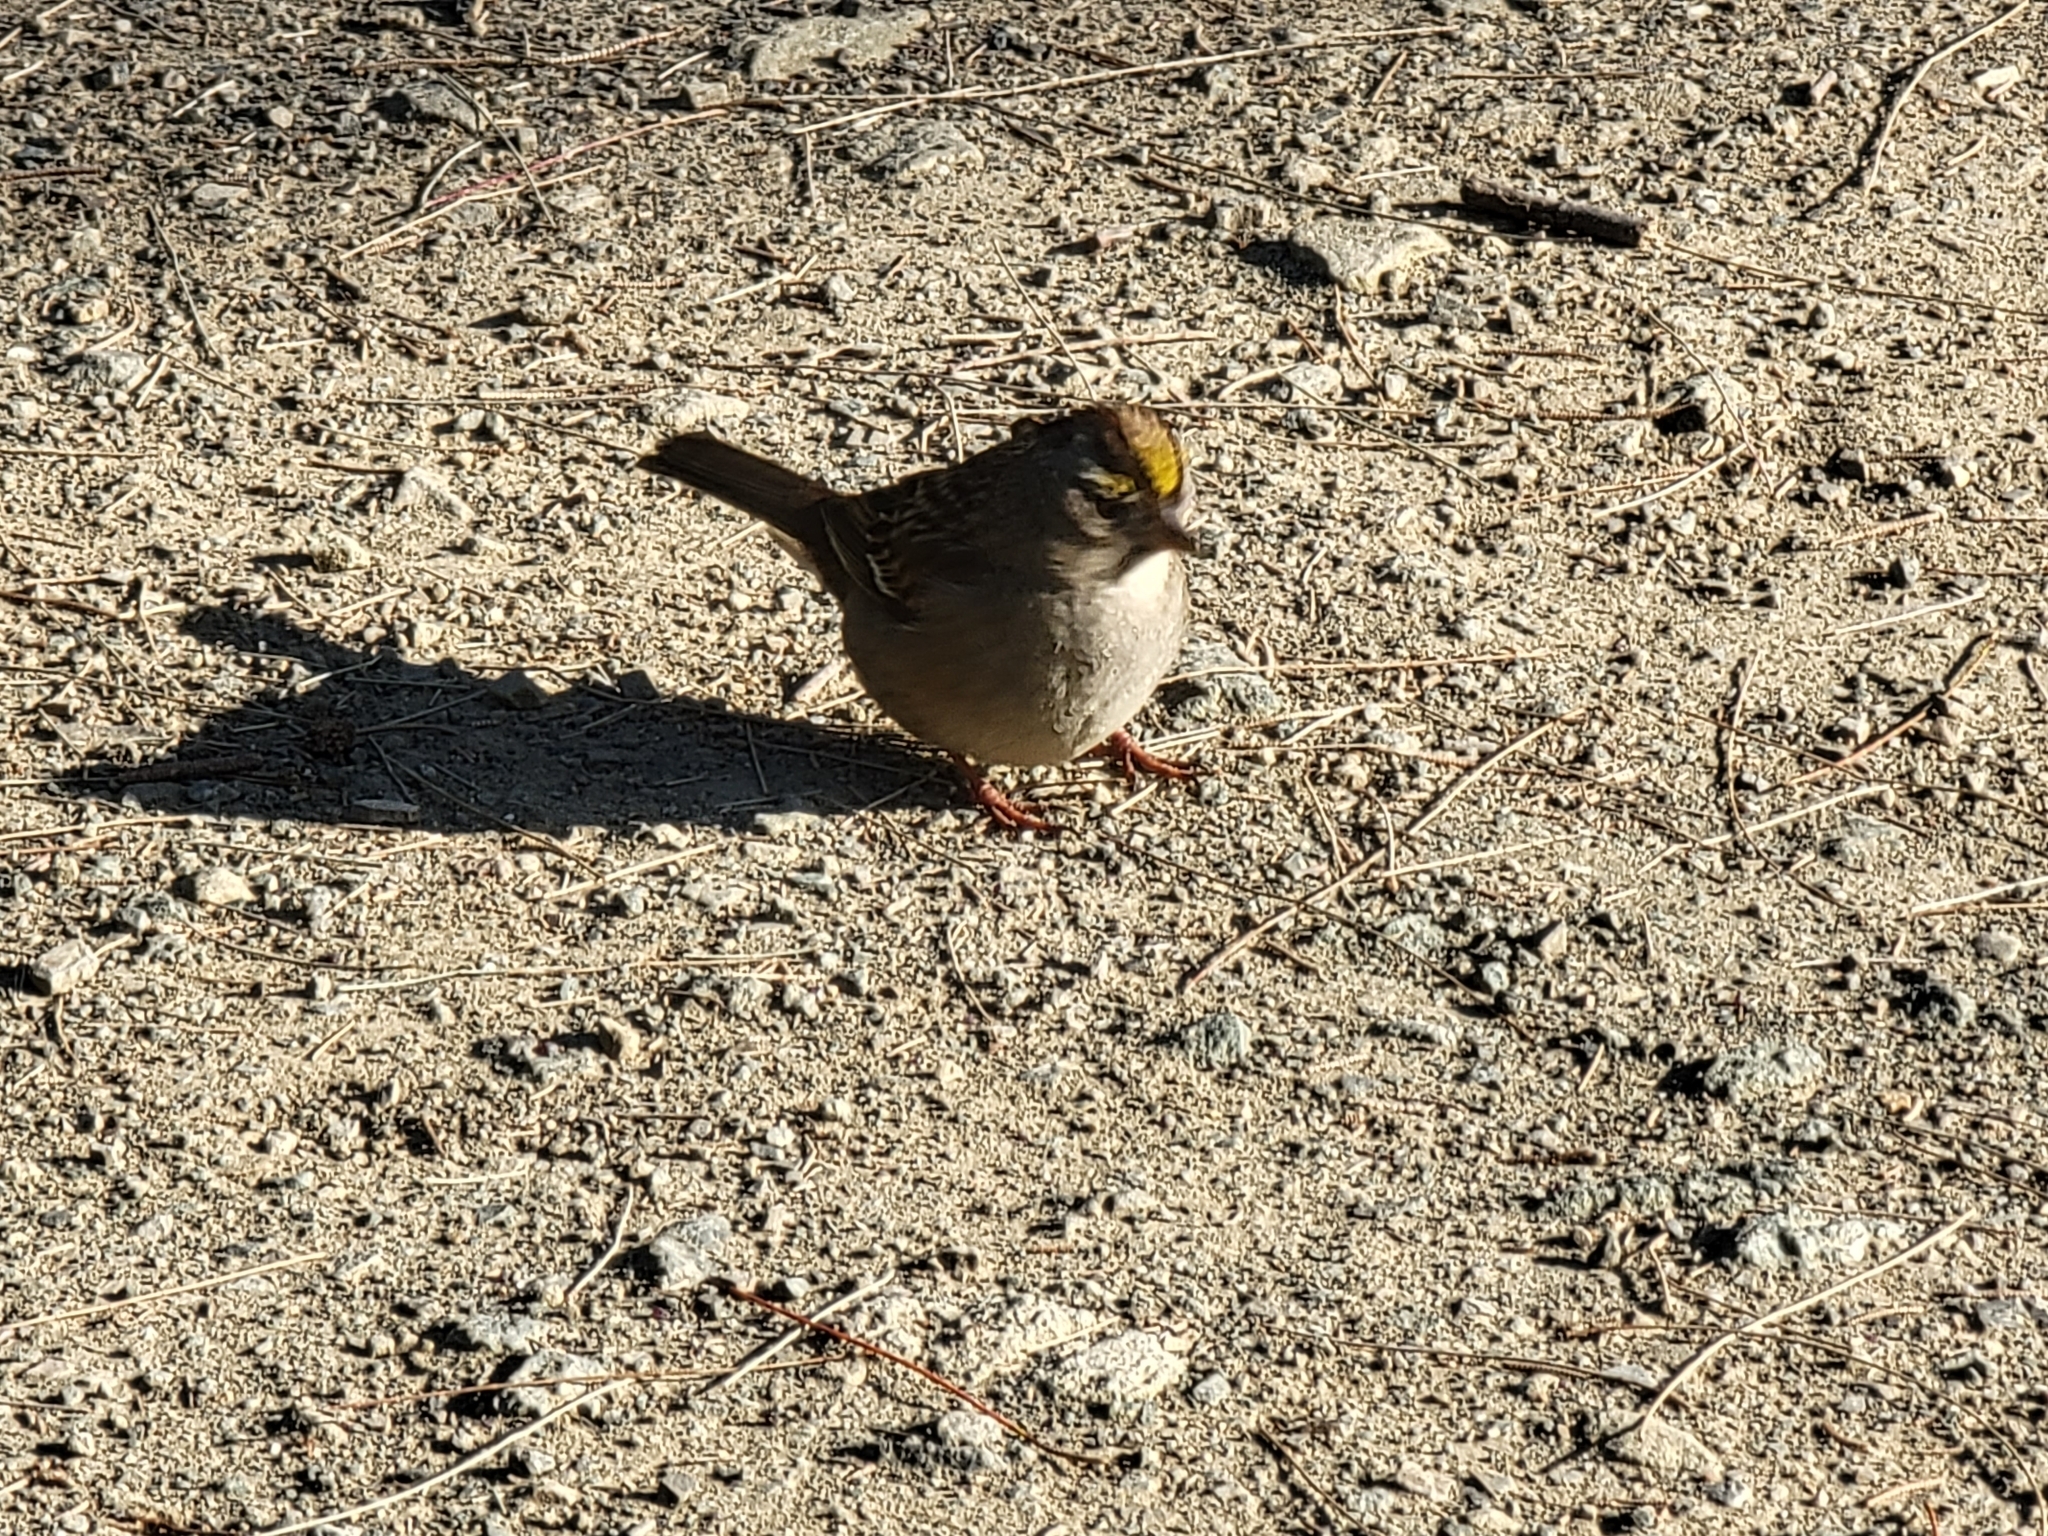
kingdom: Animalia
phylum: Chordata
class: Aves
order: Passeriformes
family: Passerellidae
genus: Zonotrichia
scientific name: Zonotrichia atricapilla
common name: Golden-crowned sparrow
